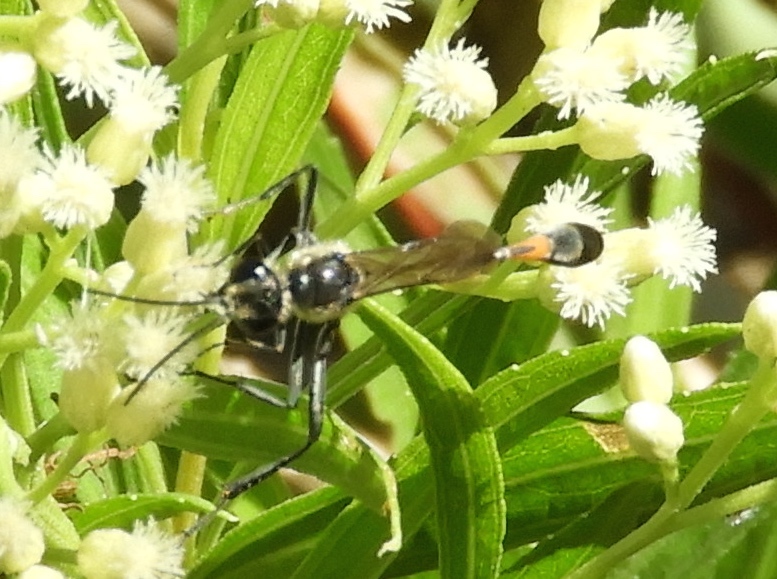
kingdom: Animalia
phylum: Arthropoda
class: Insecta
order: Hymenoptera
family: Sphecidae
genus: Ammophila
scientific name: Ammophila
